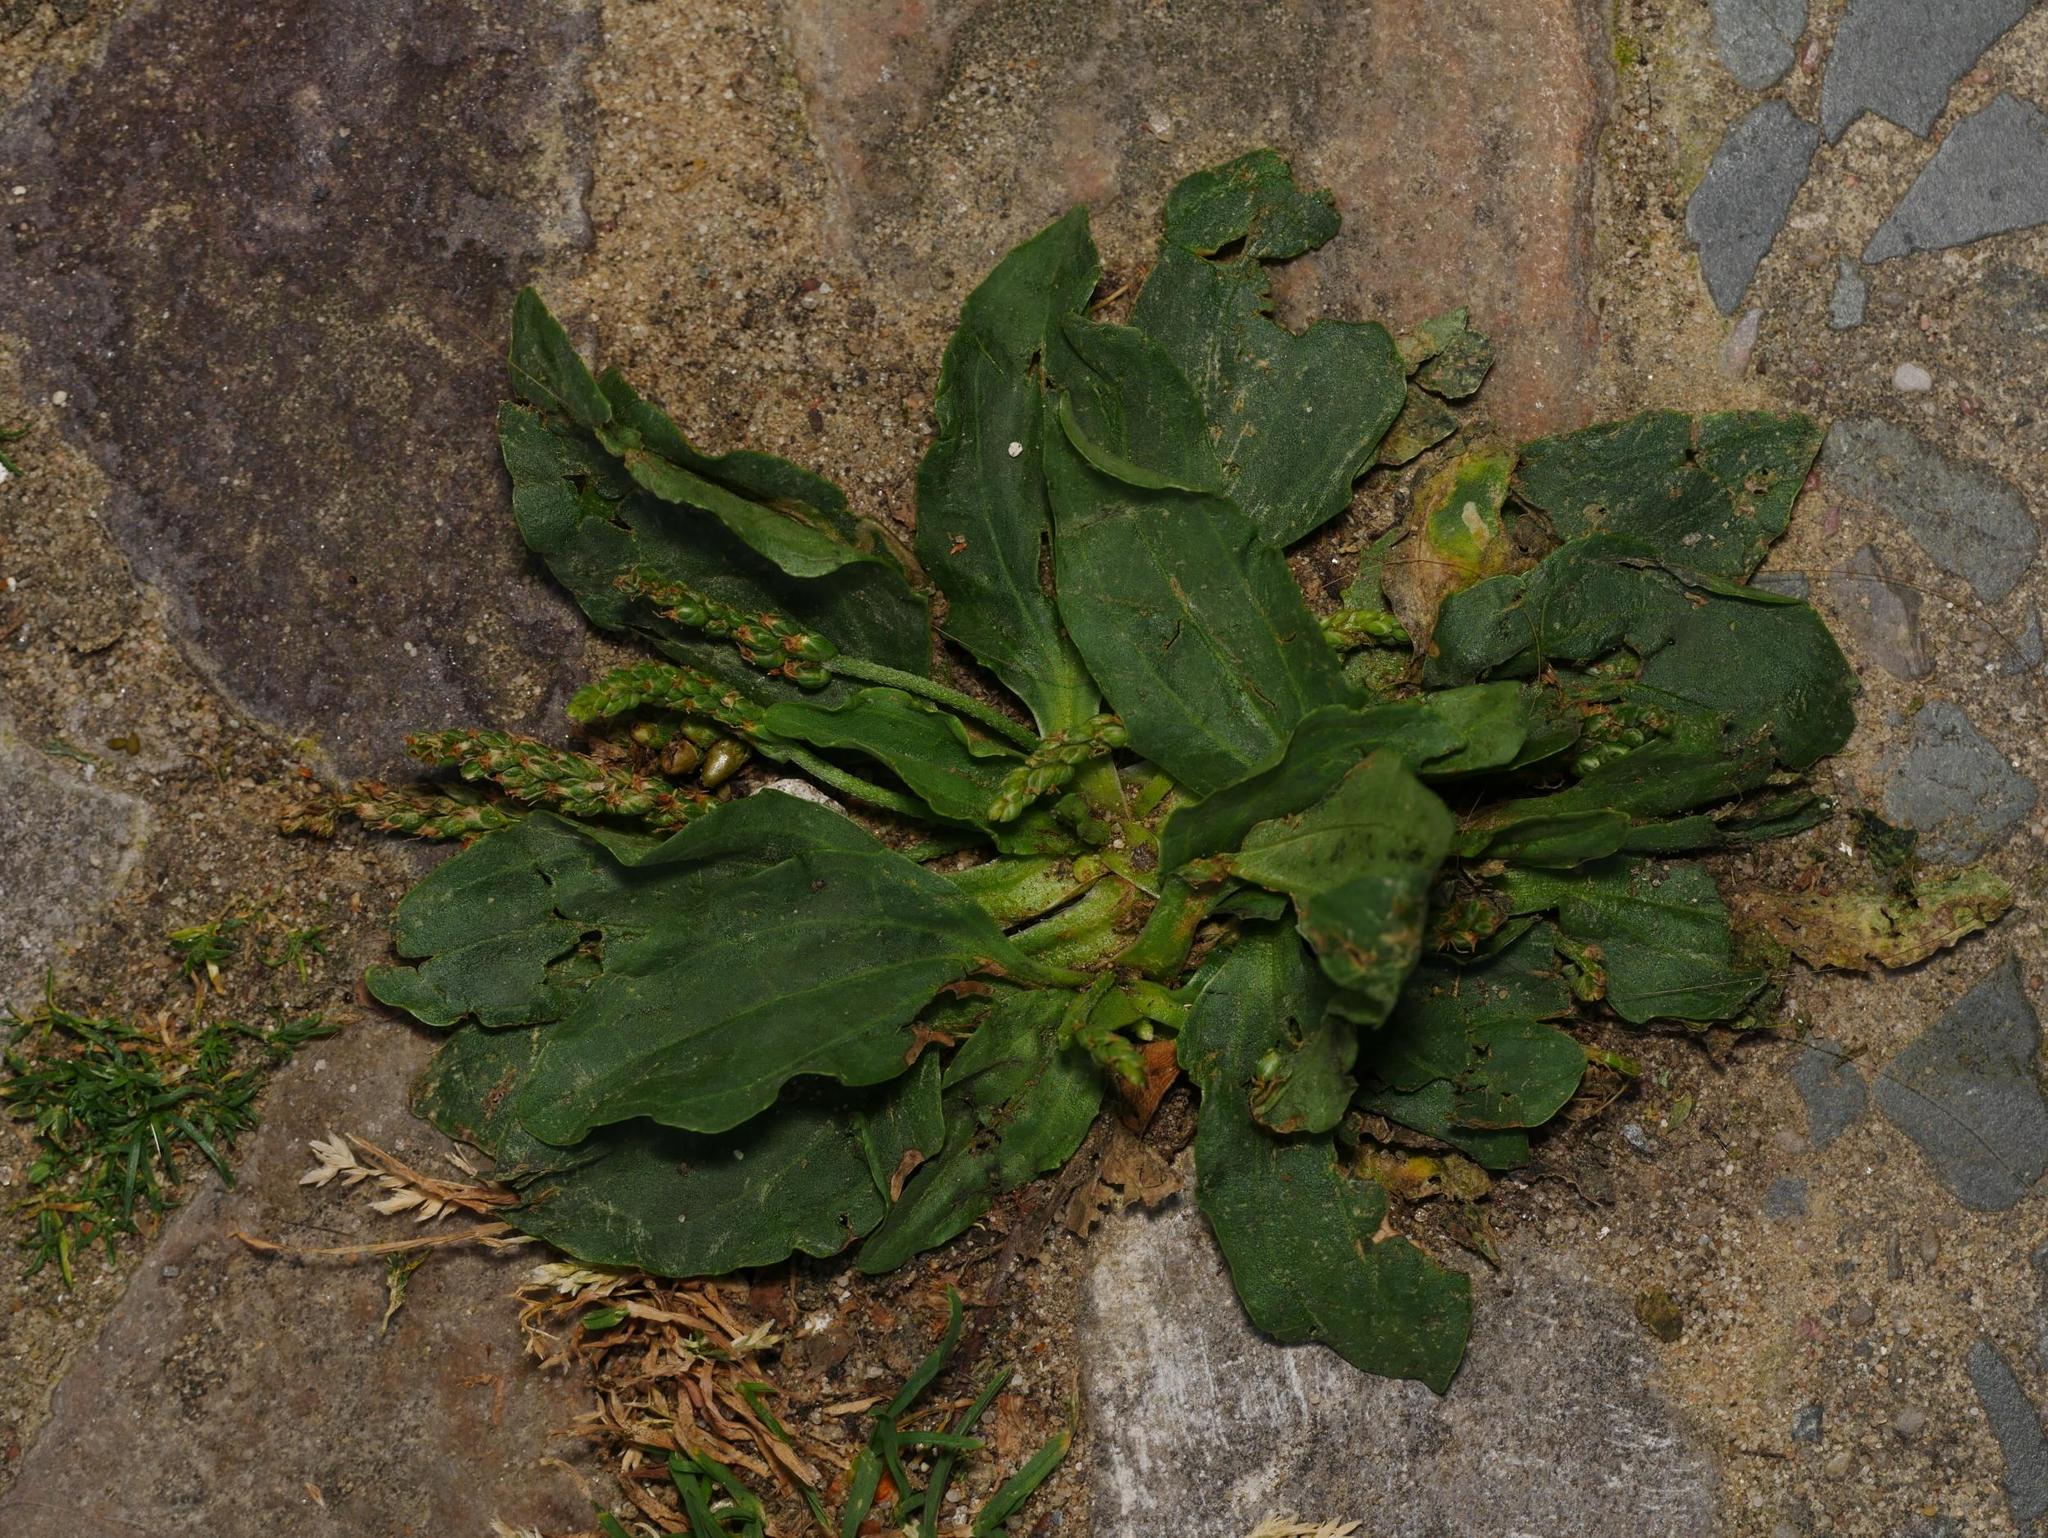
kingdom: Plantae
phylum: Tracheophyta
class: Magnoliopsida
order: Lamiales
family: Plantaginaceae
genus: Plantago
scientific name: Plantago major
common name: Common plantain
